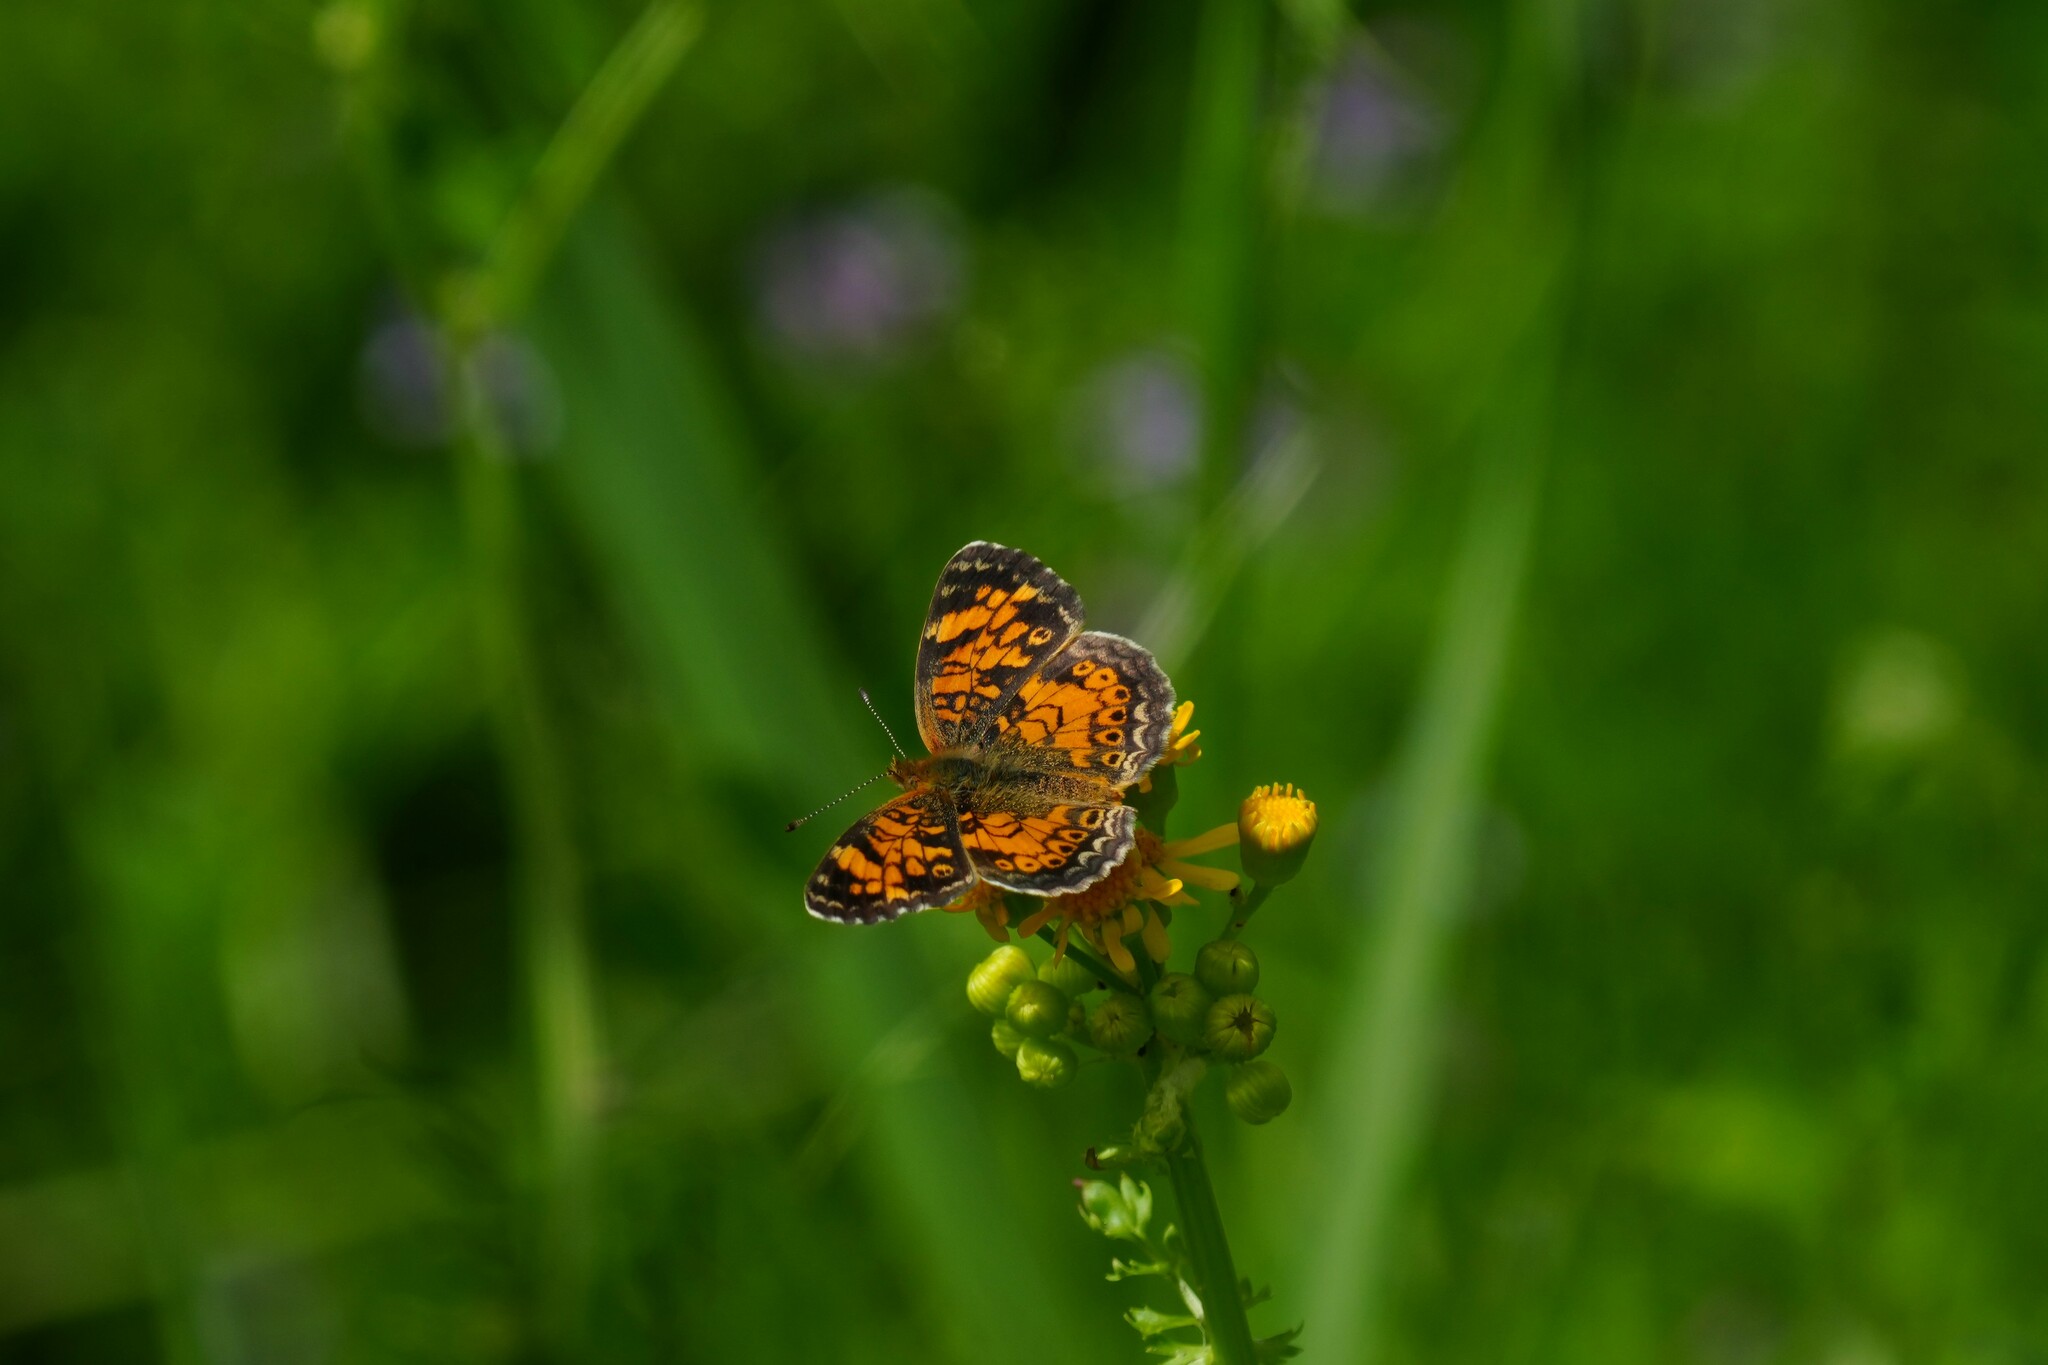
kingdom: Animalia
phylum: Arthropoda
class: Insecta
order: Lepidoptera
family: Nymphalidae
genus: Phyciodes
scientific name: Phyciodes tharos
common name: Pearl crescent
